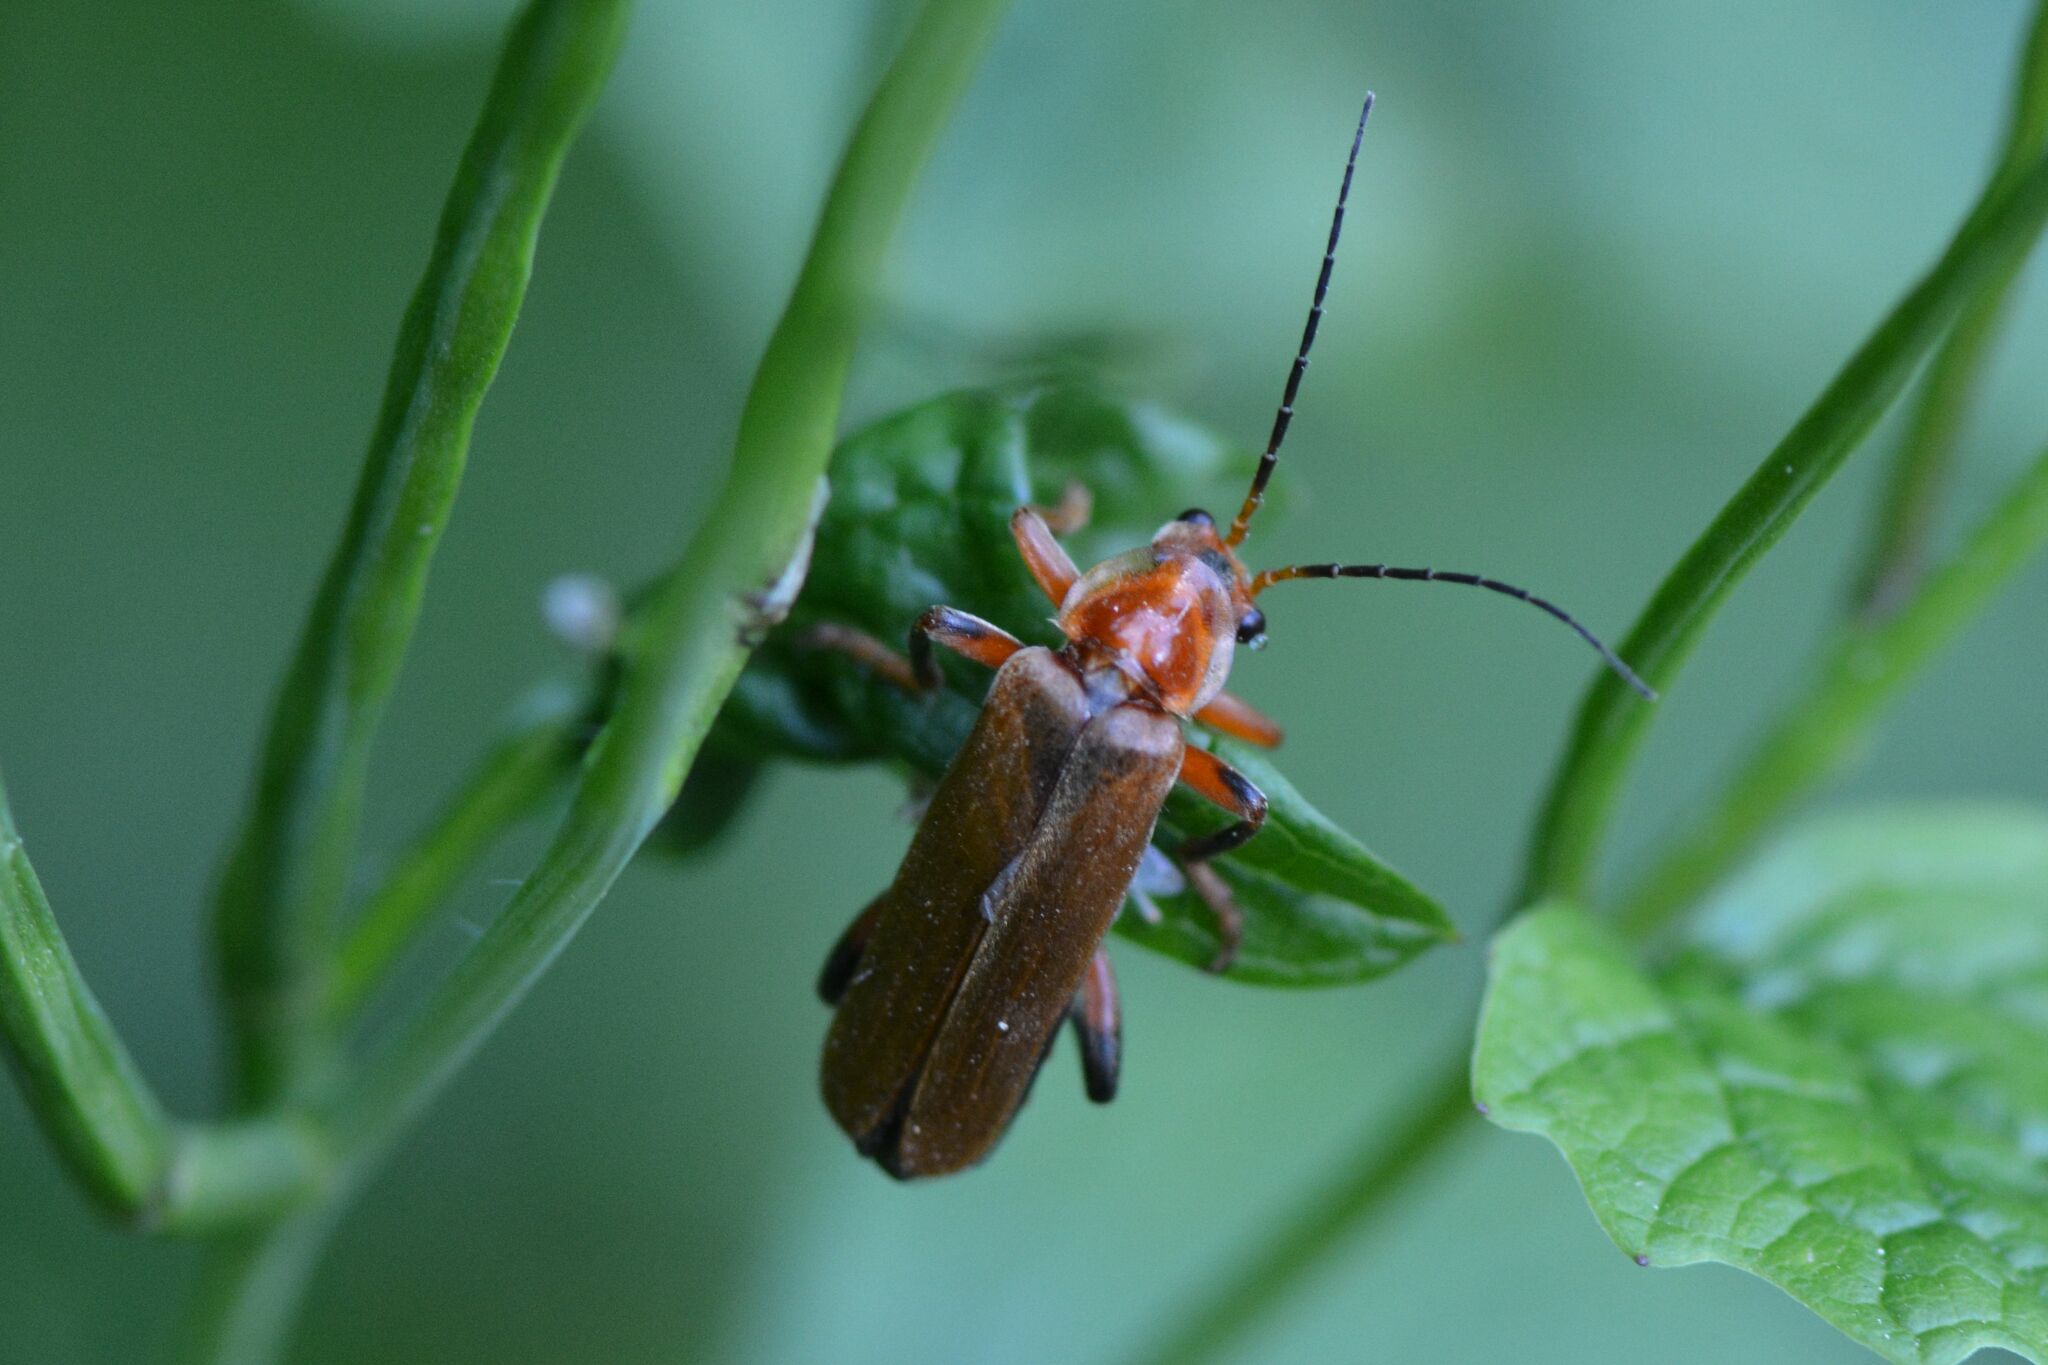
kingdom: Animalia
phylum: Arthropoda
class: Insecta
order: Coleoptera
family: Cantharidae
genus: Cantharis
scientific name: Cantharis livida
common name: Livid soldier beetle
